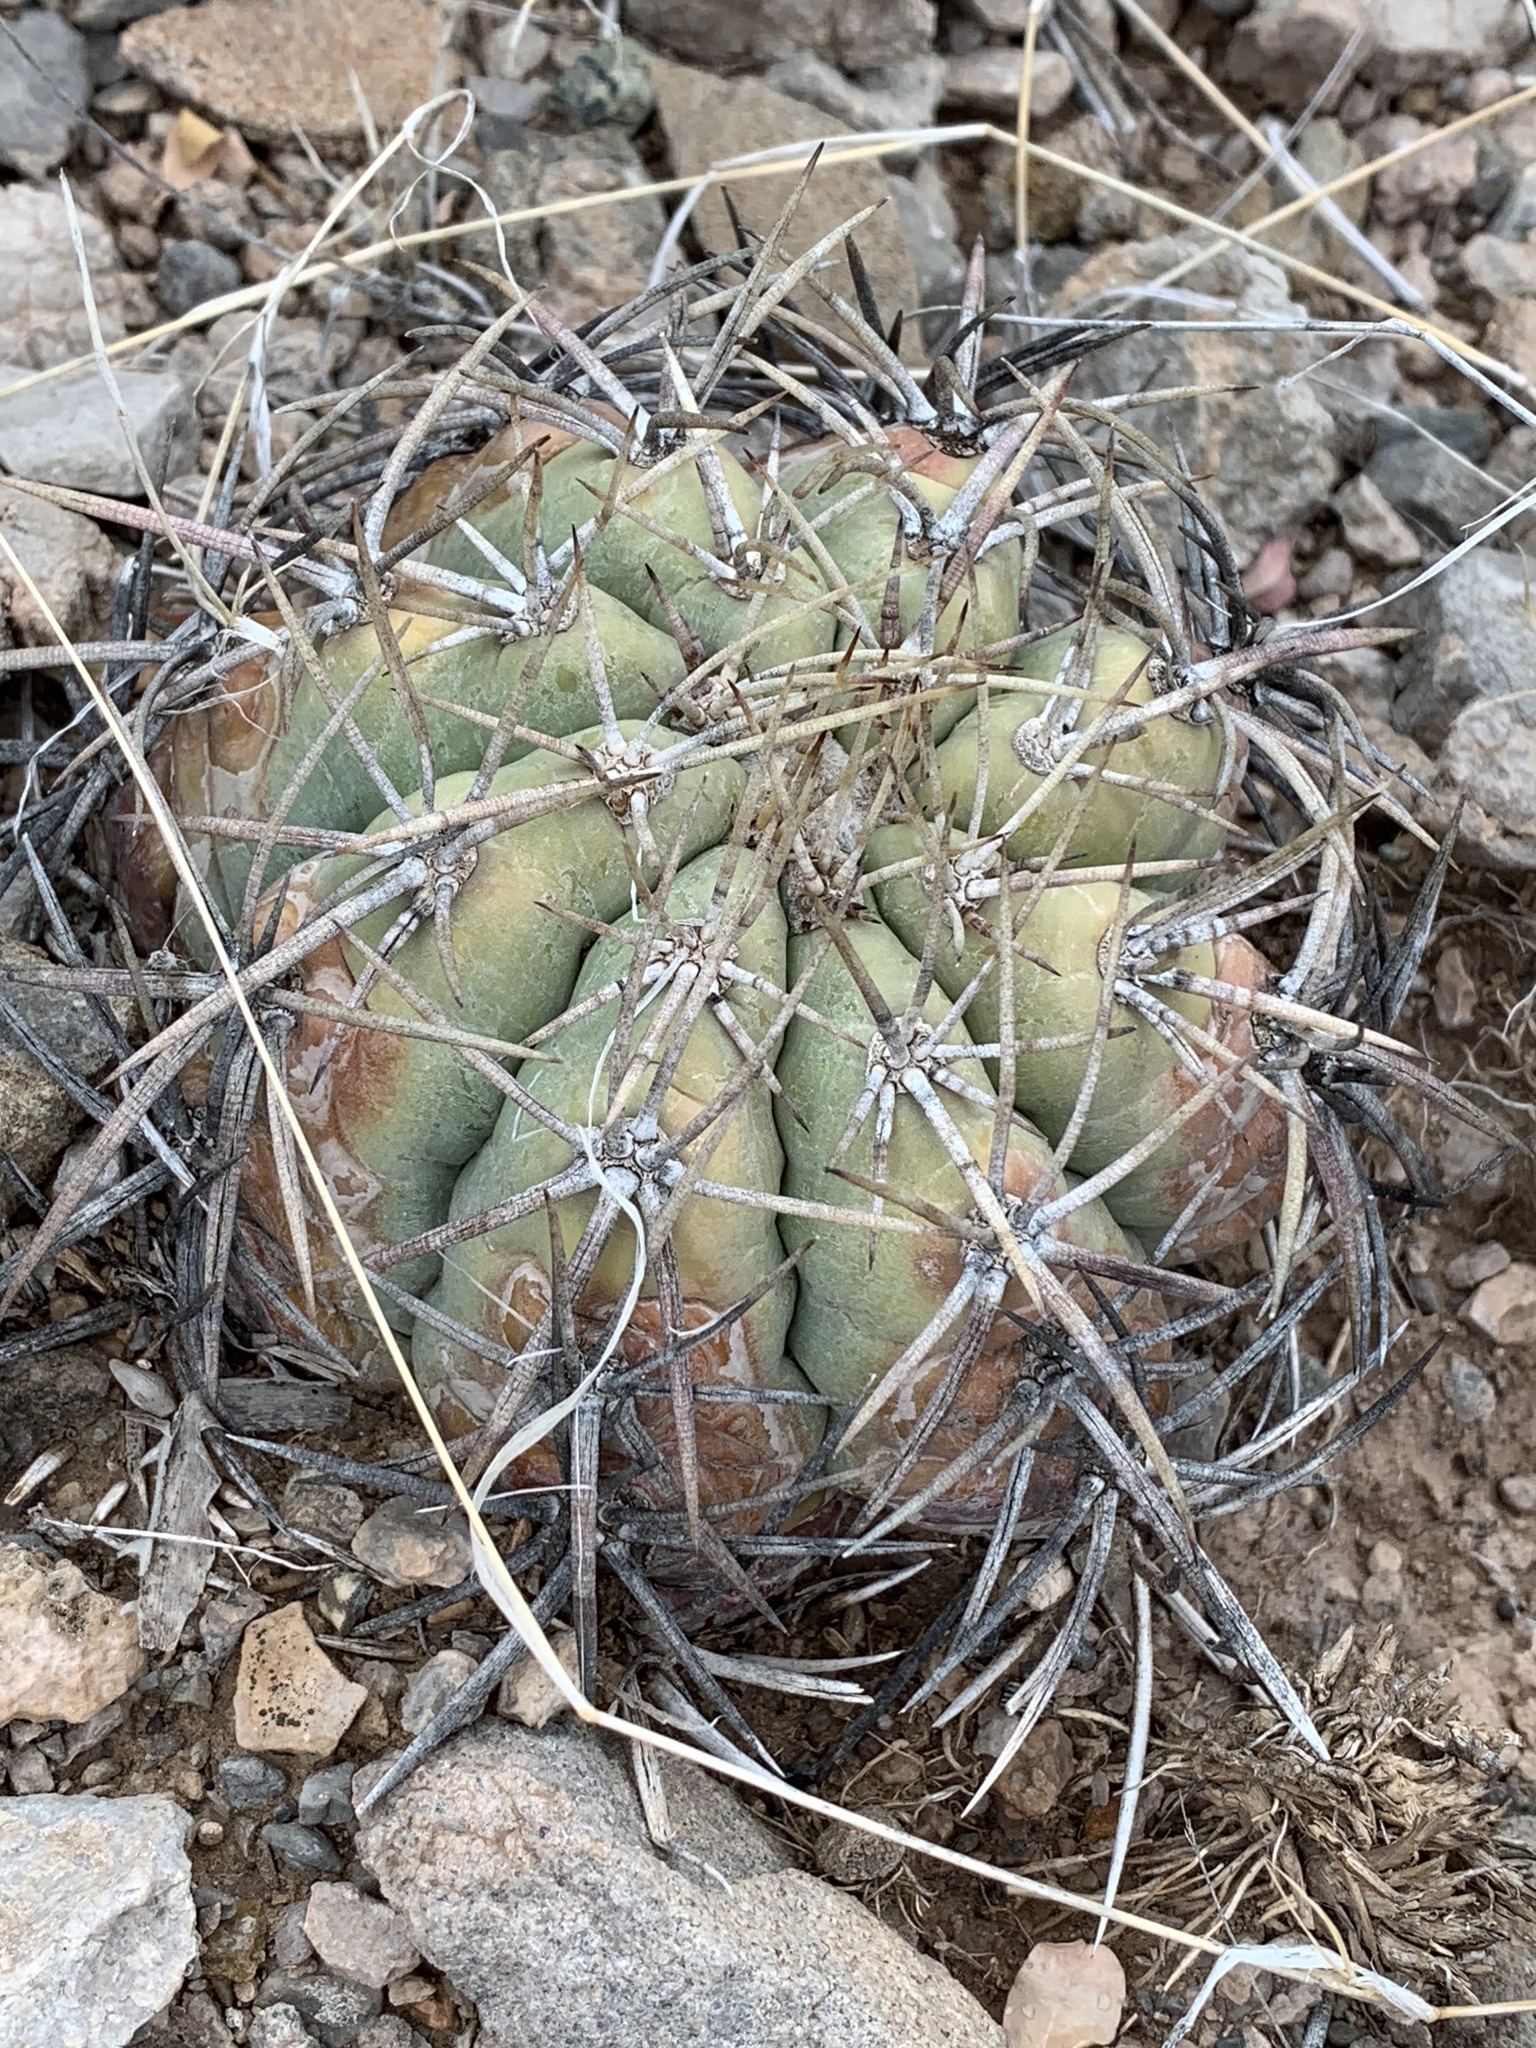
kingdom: Plantae
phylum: Tracheophyta
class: Magnoliopsida
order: Caryophyllales
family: Cactaceae
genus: Echinocactus
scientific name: Echinocactus horizonthalonius
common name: Devilshead
